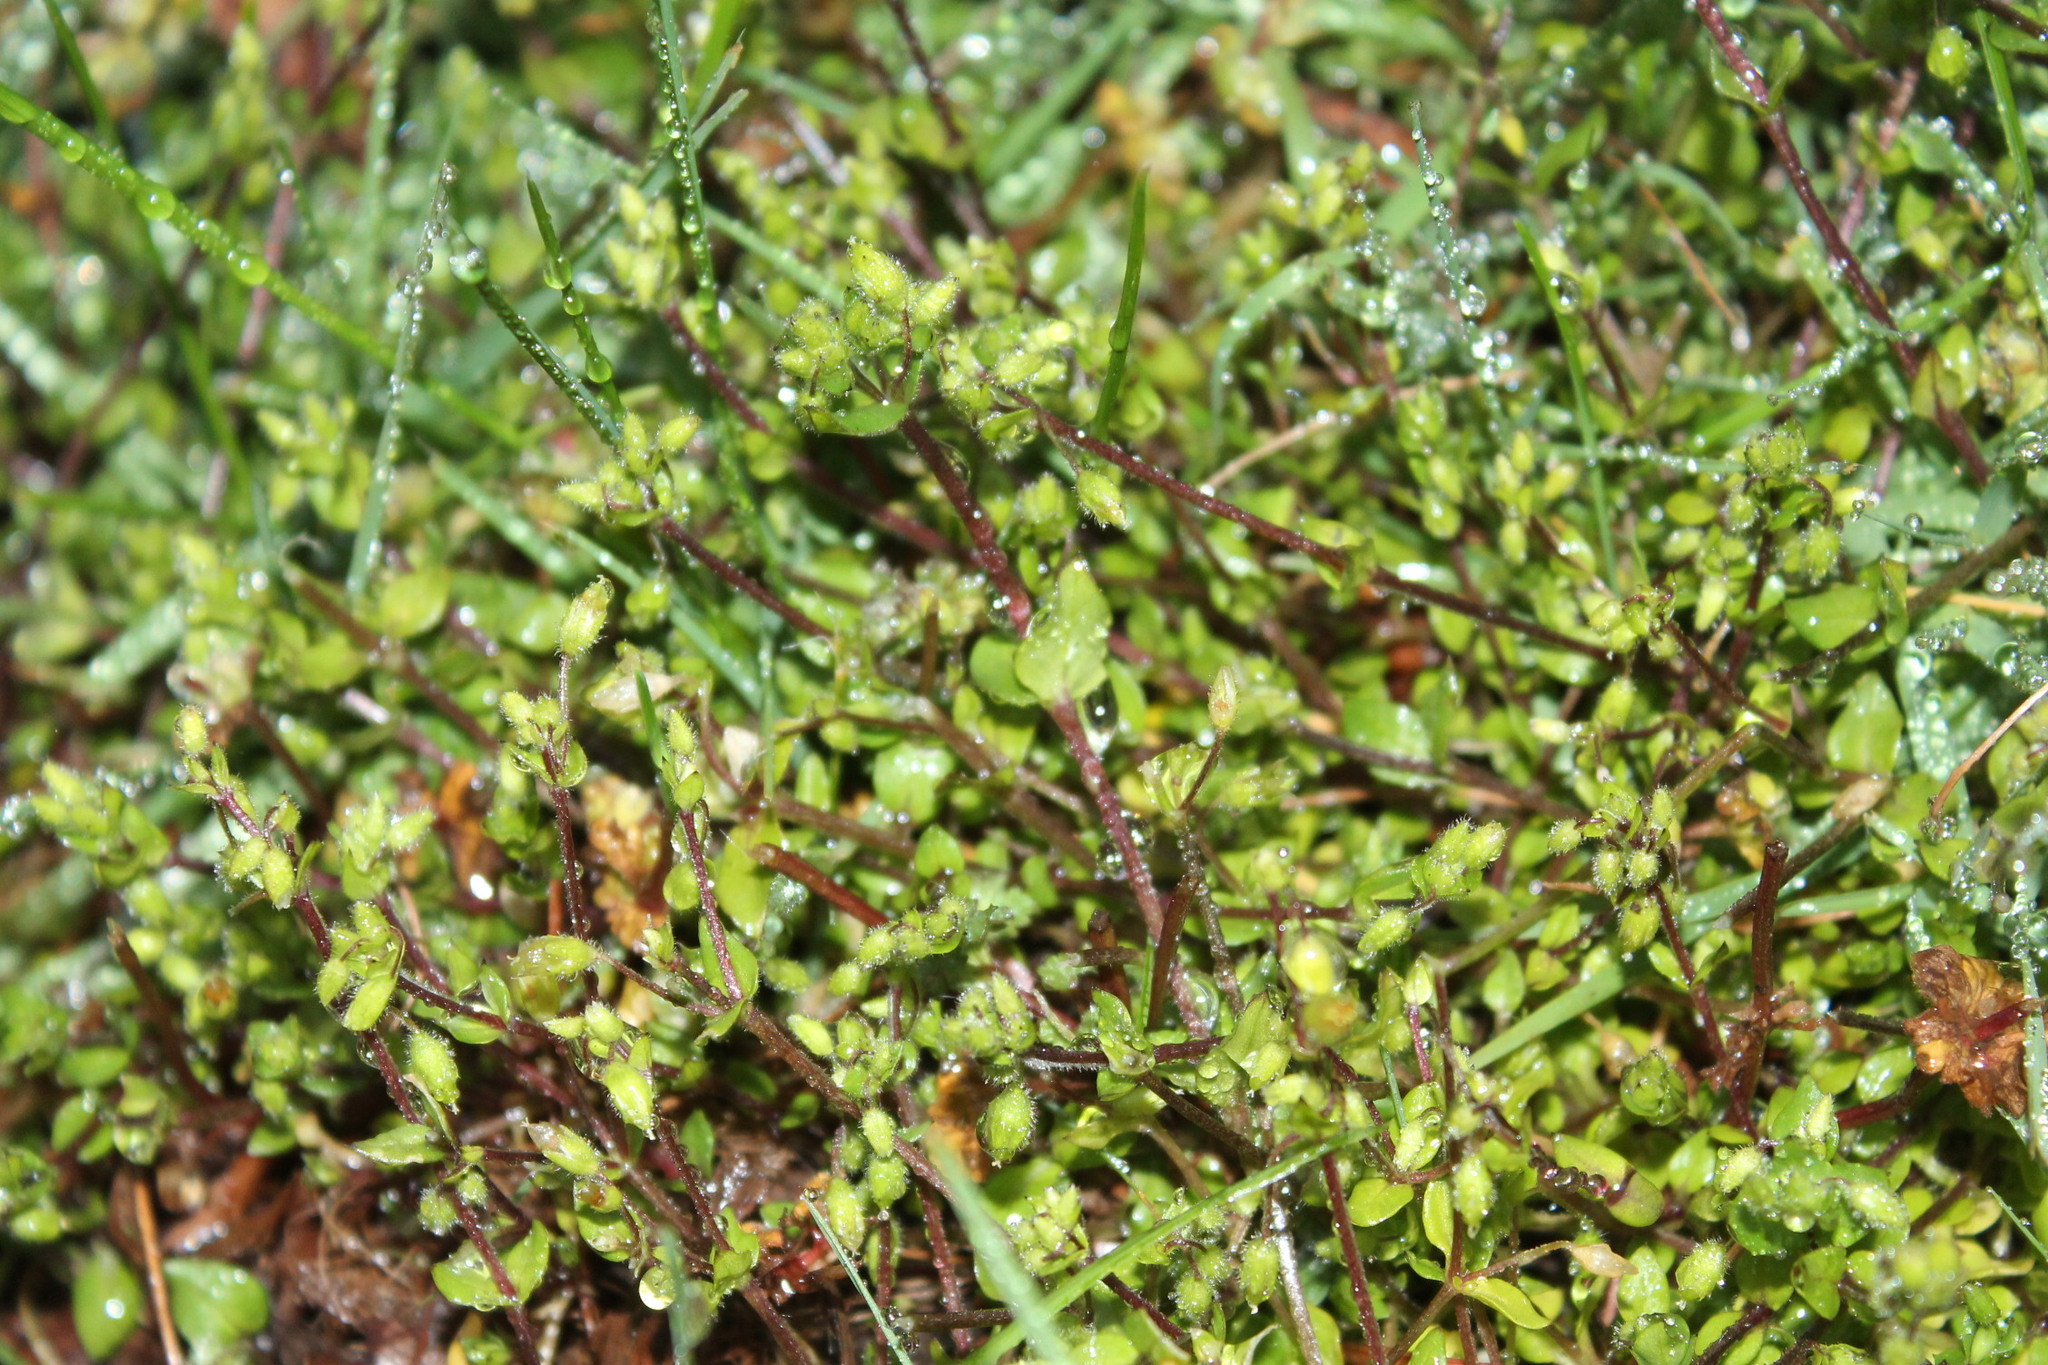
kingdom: Plantae
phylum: Tracheophyta
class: Magnoliopsida
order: Caryophyllales
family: Caryophyllaceae
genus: Stellaria
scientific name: Stellaria media
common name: Common chickweed
